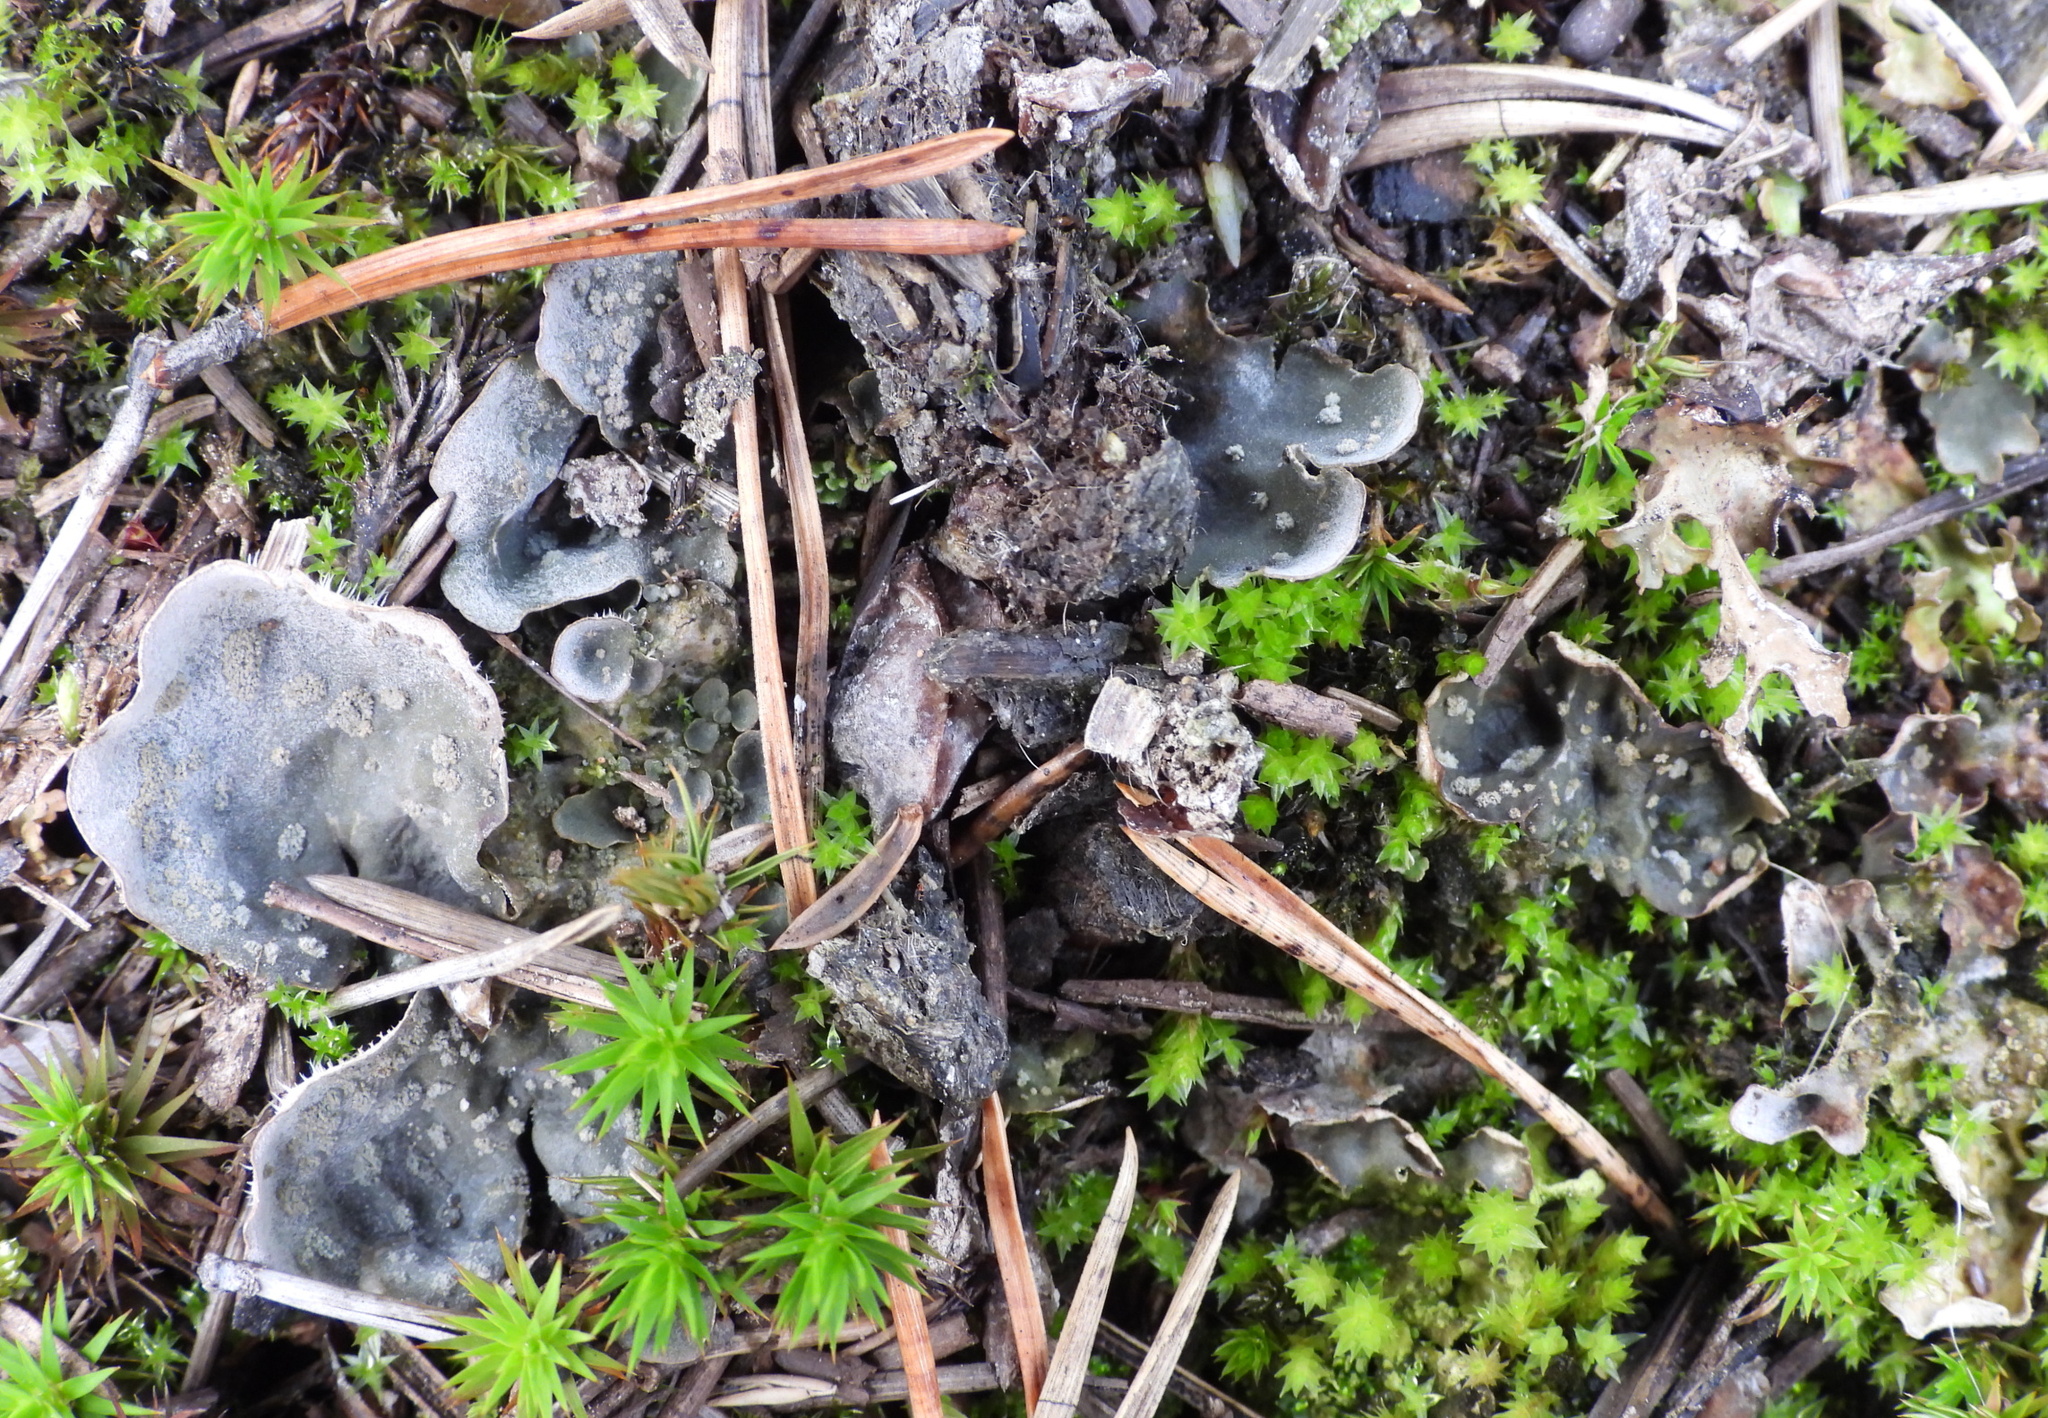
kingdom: Fungi
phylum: Ascomycota
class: Lecanoromycetes
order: Peltigerales
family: Peltigeraceae
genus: Peltigera
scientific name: Peltigera extenuata
